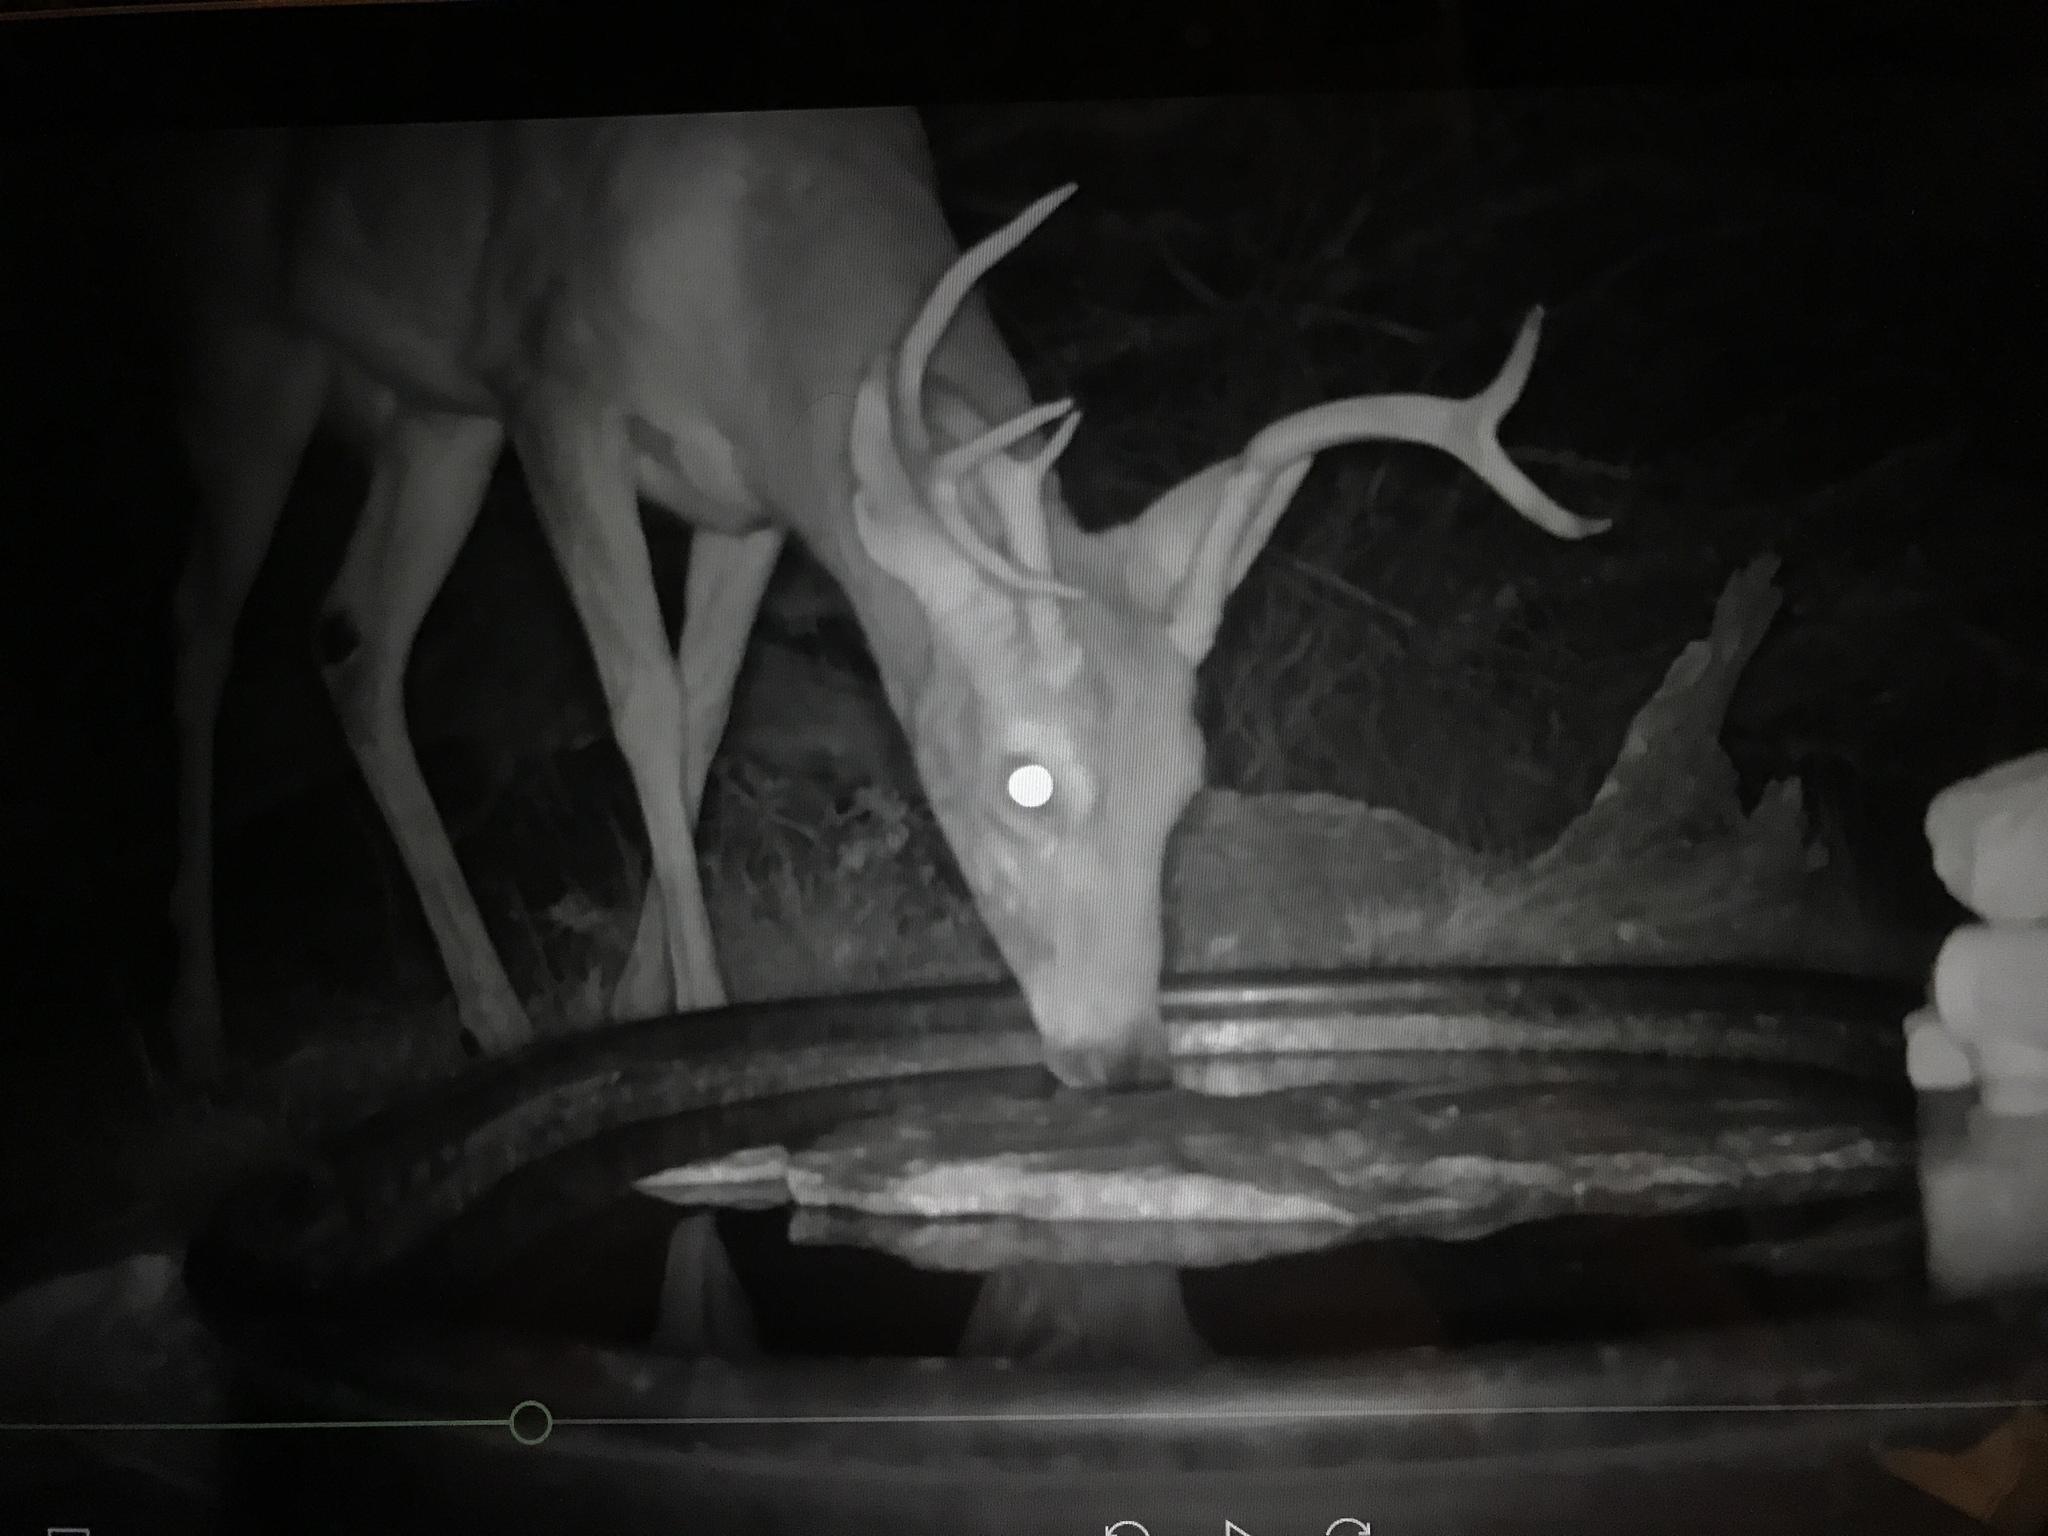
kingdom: Animalia
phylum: Chordata
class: Mammalia
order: Artiodactyla
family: Cervidae
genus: Odocoileus
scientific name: Odocoileus virginianus
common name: White-tailed deer
